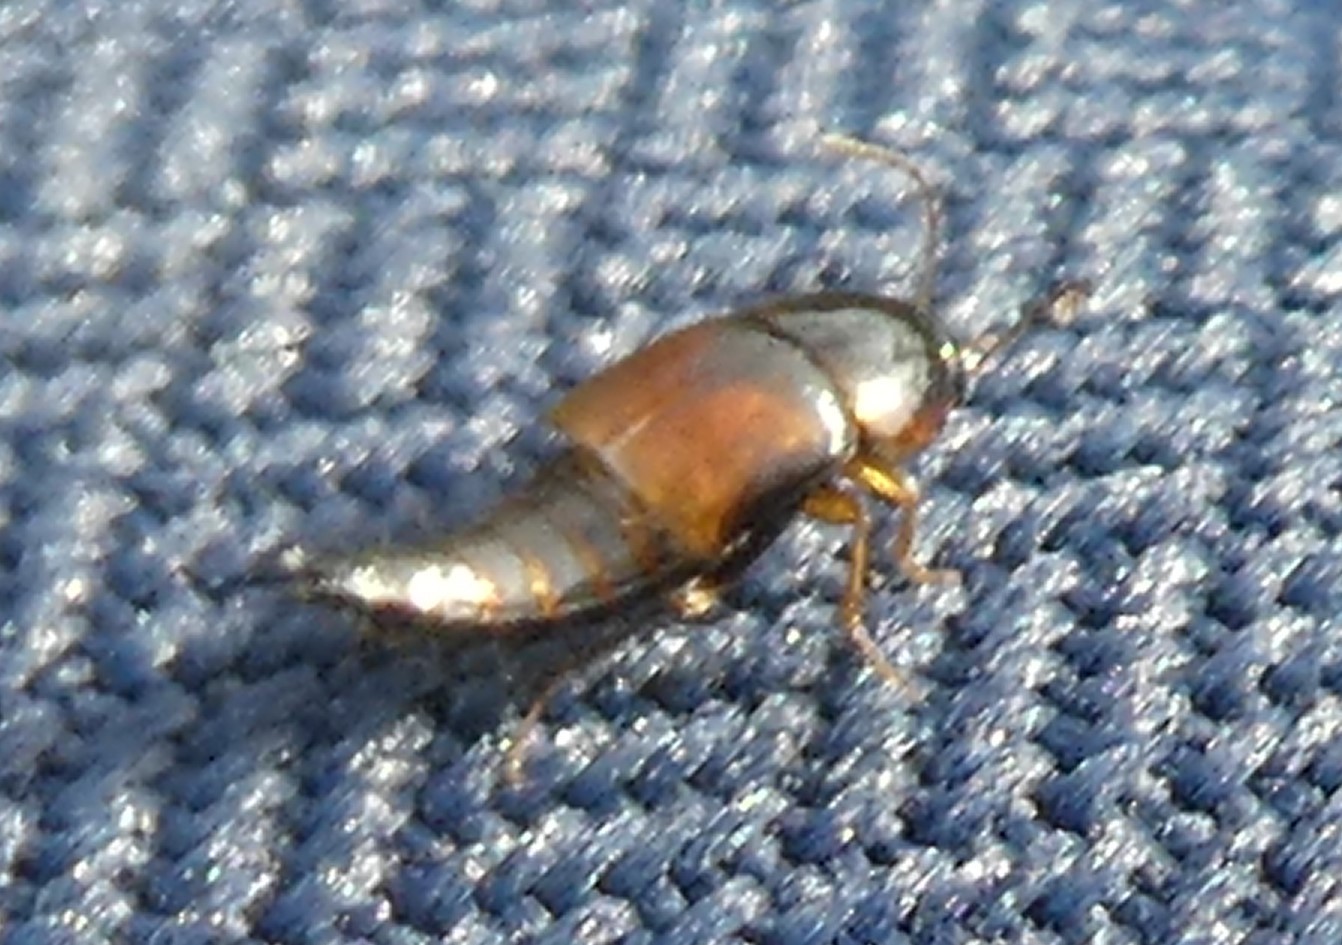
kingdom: Animalia
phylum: Arthropoda
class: Insecta
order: Coleoptera
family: Staphylinidae
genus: Tachyporus
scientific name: Tachyporus hypnorum
